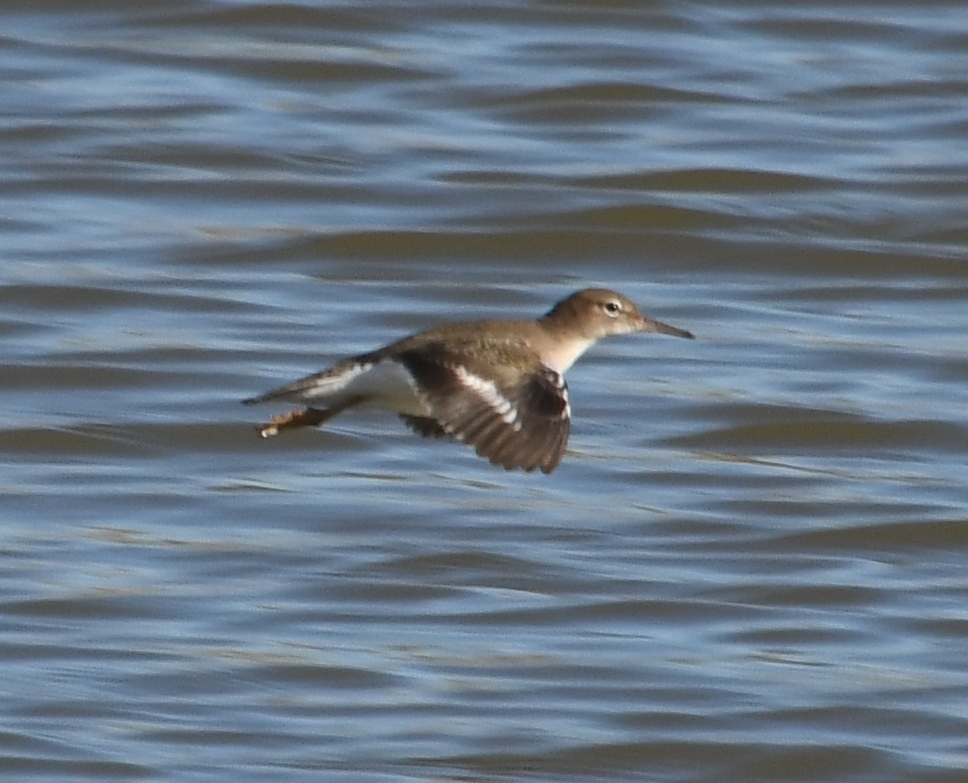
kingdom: Animalia
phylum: Chordata
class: Aves
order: Charadriiformes
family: Scolopacidae
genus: Actitis
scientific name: Actitis macularius
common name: Spotted sandpiper
